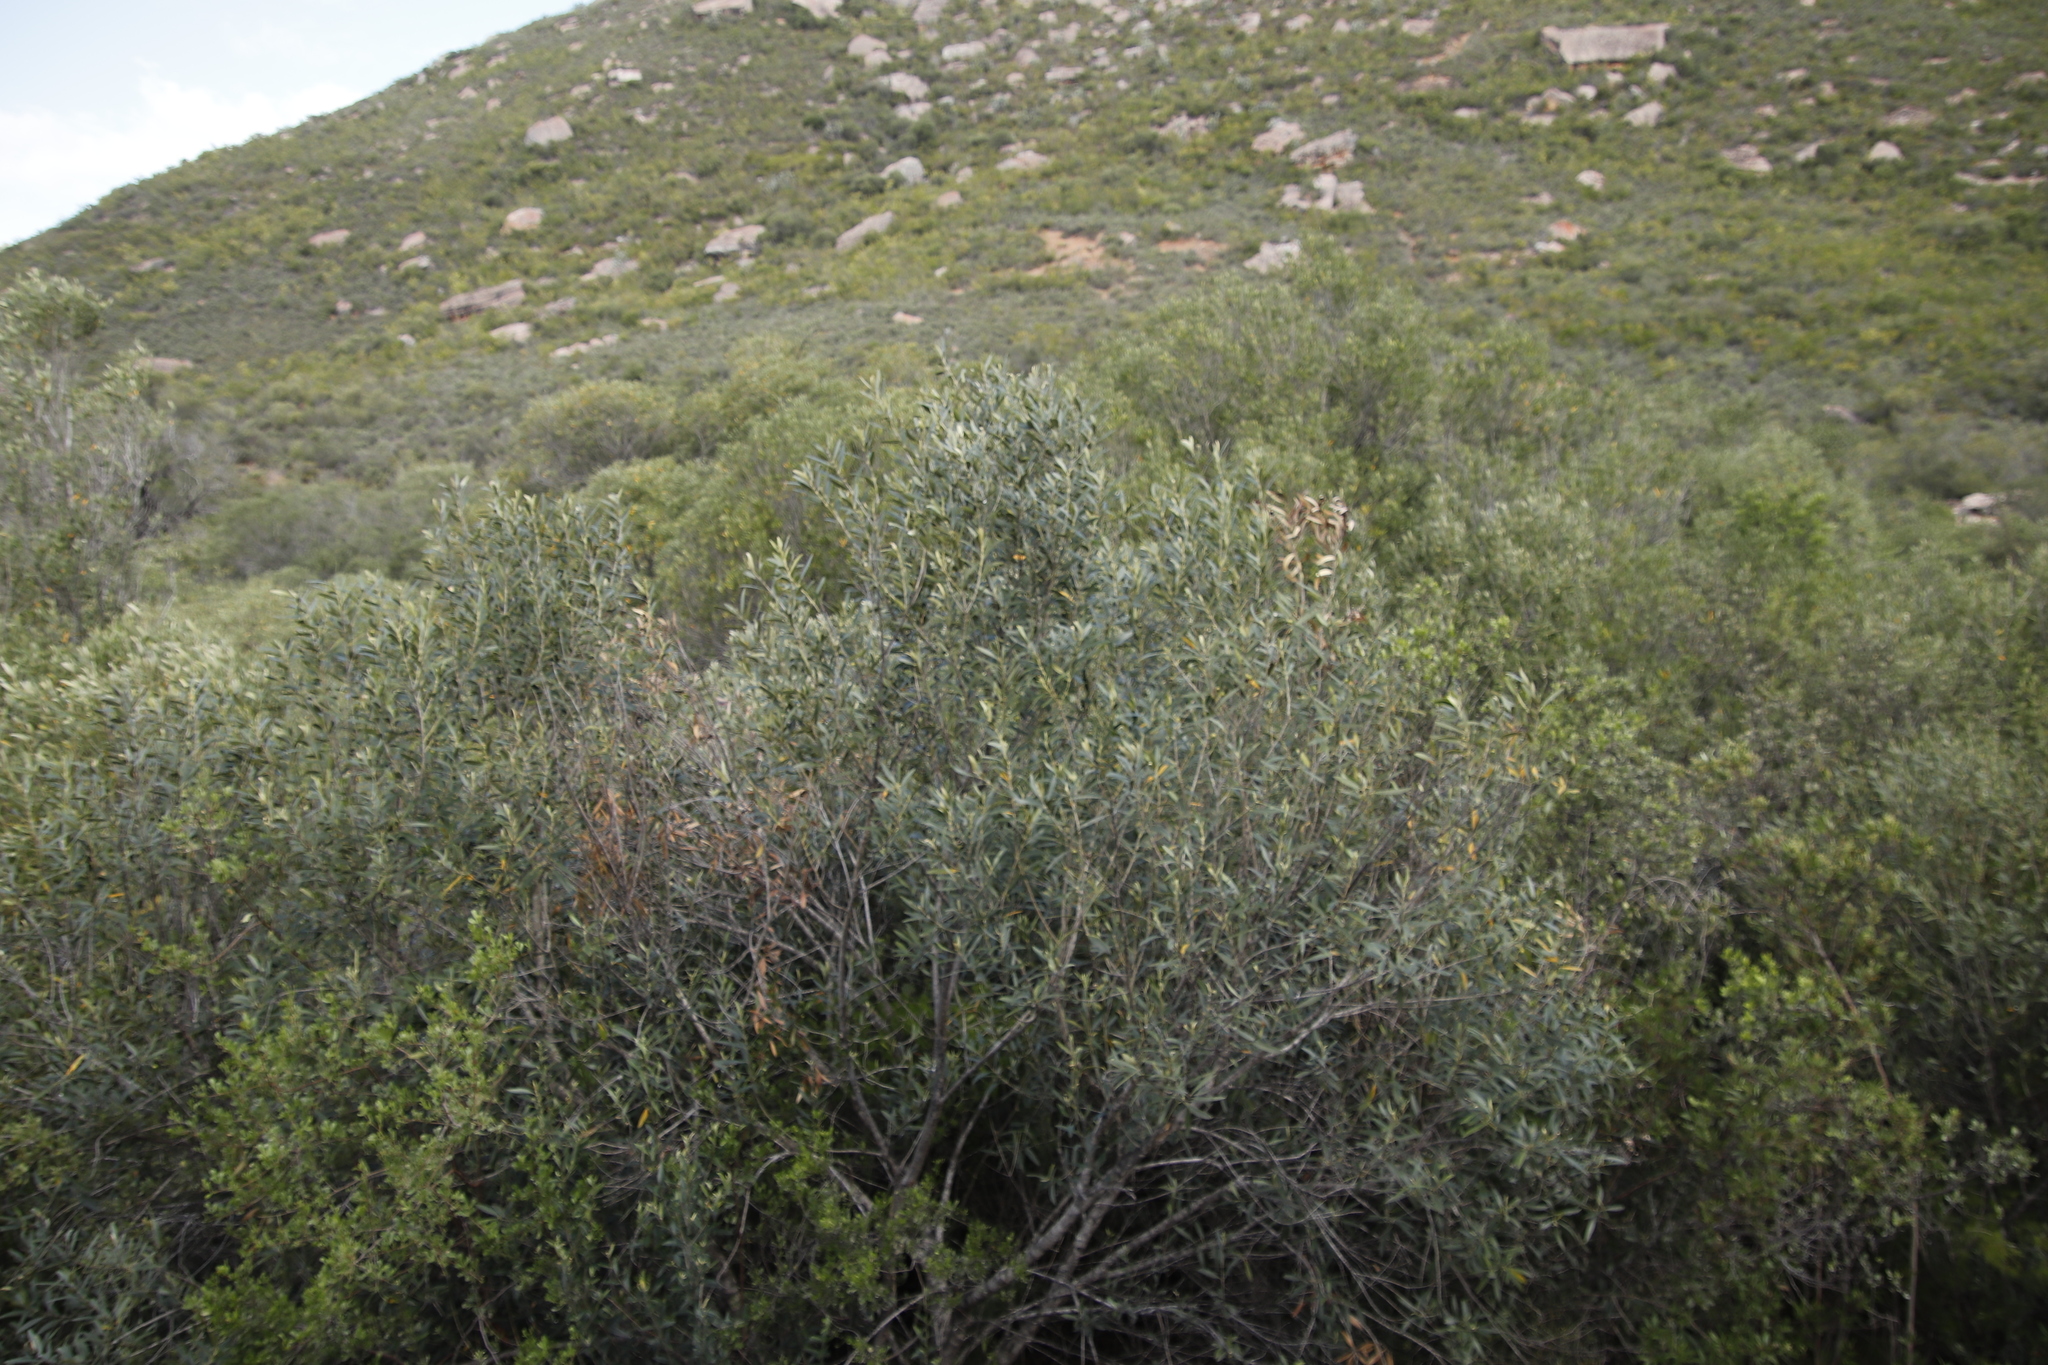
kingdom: Plantae
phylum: Tracheophyta
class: Magnoliopsida
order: Lamiales
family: Oleaceae
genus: Olea
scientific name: Olea europaea
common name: Olive
